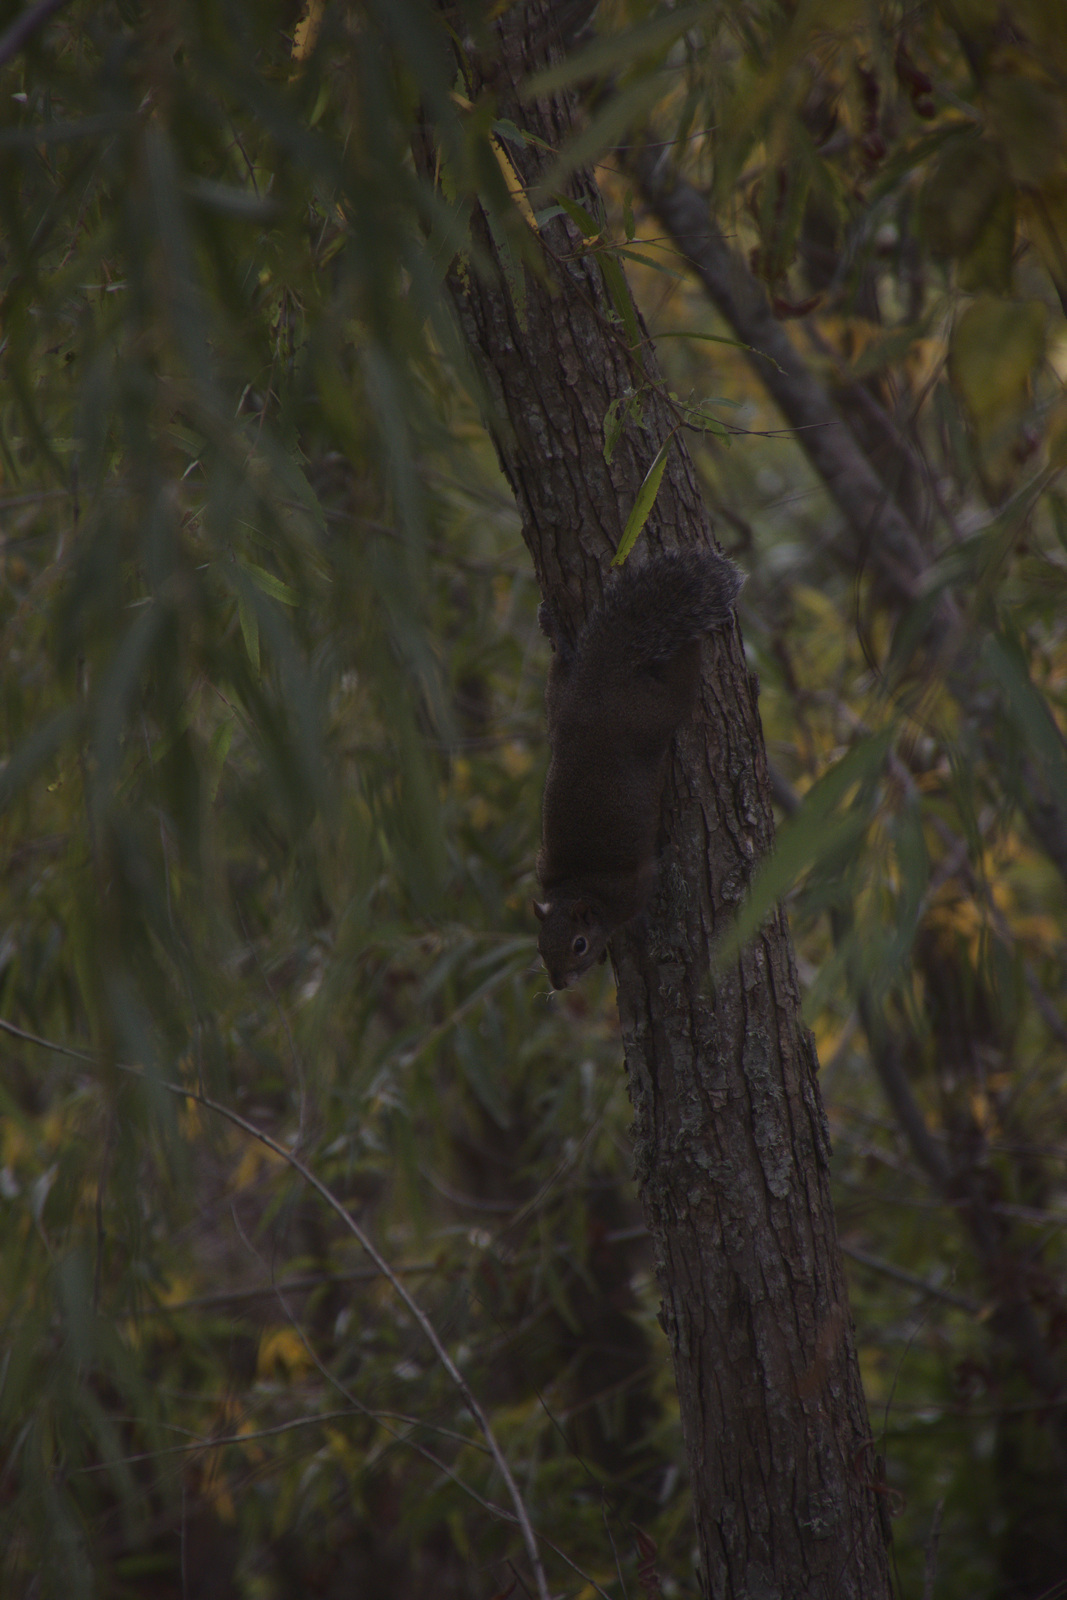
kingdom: Animalia
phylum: Chordata
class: Mammalia
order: Rodentia
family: Sciuridae
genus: Sciurus
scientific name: Sciurus carolinensis
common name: Eastern gray squirrel
